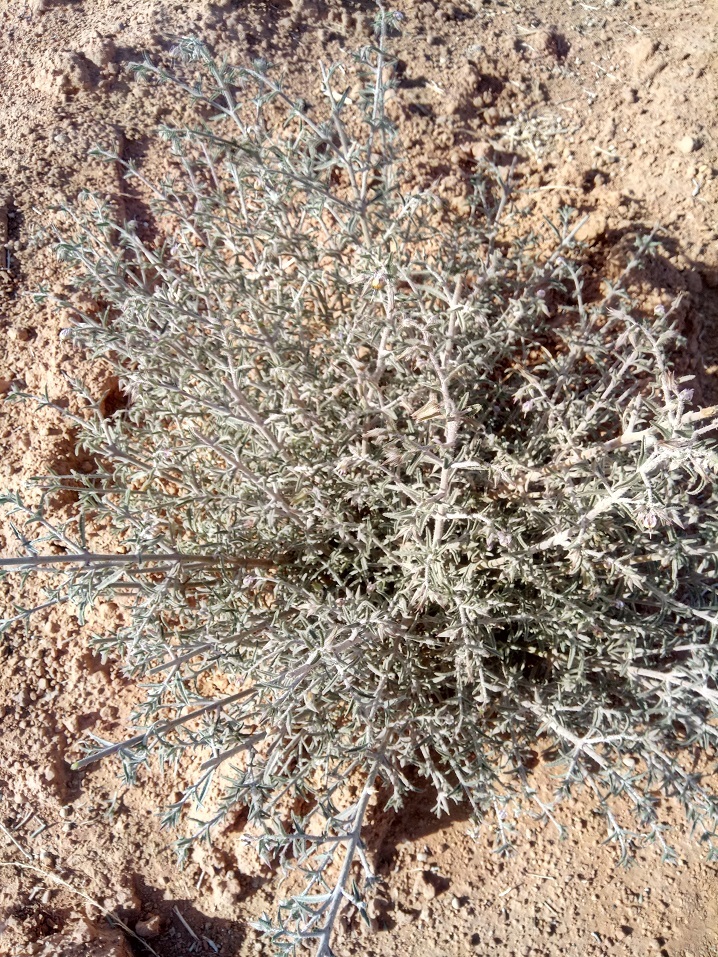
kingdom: Plantae
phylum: Tracheophyta
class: Magnoliopsida
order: Boraginales
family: Boraginaceae
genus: Trichodesma
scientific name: Trichodesma africanum
